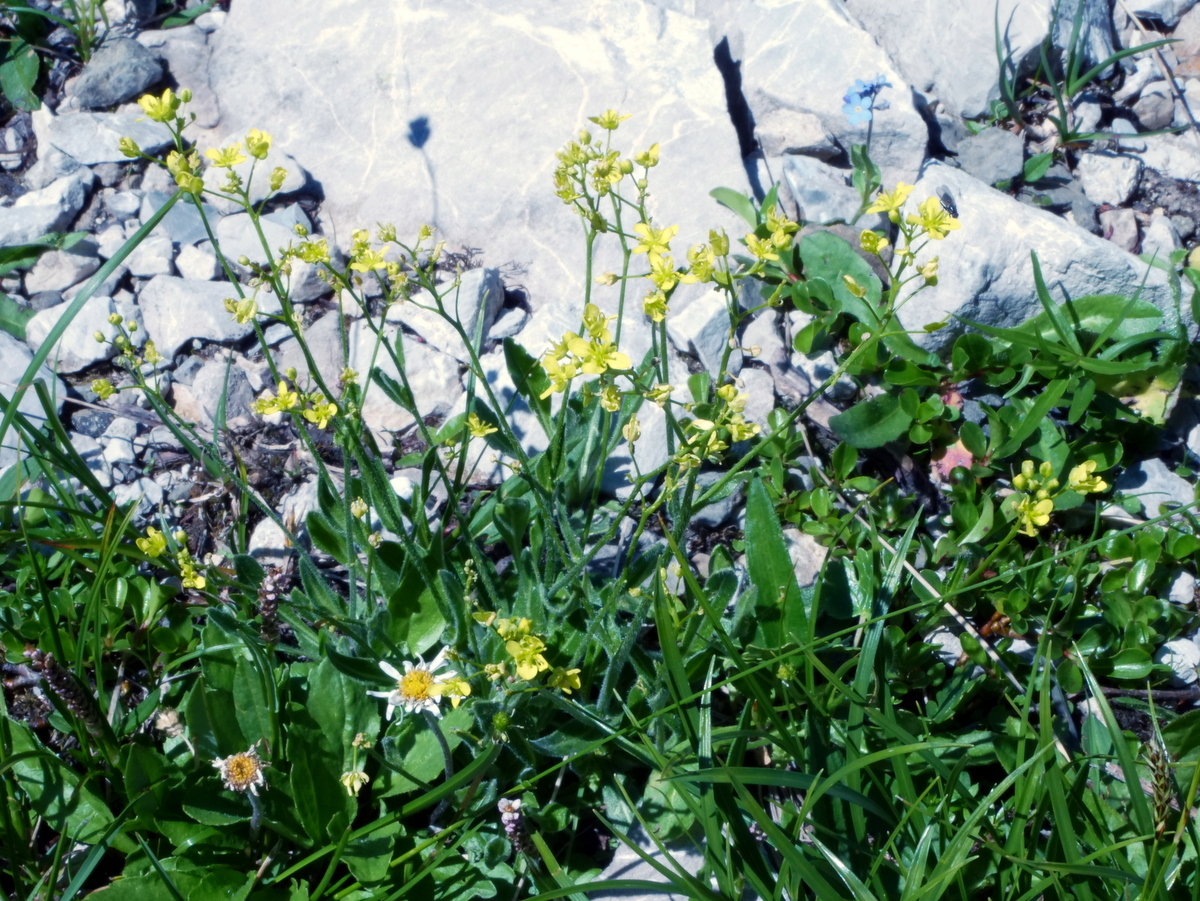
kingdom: Plantae
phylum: Tracheophyta
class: Magnoliopsida
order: Brassicales
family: Brassicaceae
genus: Biscutella
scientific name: Biscutella laevigata
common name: Buckler mustard
